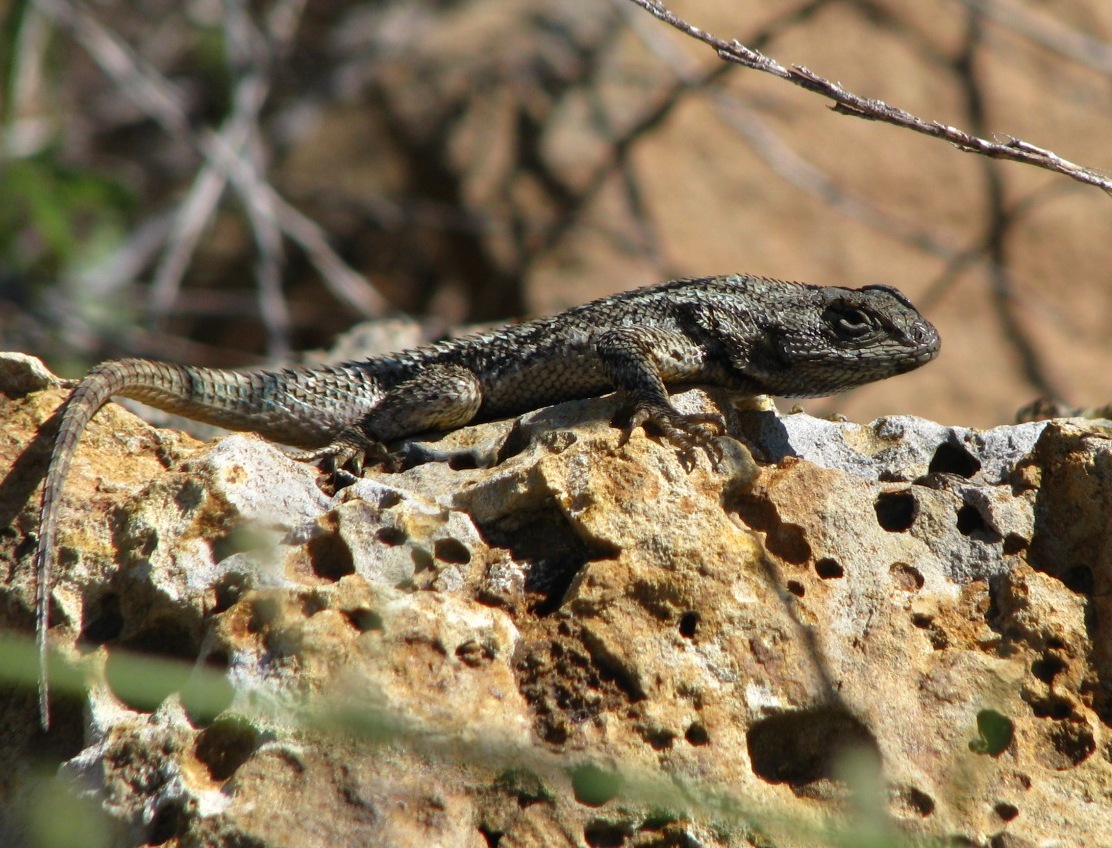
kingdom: Animalia
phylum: Chordata
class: Squamata
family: Phrynosomatidae
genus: Sceloporus
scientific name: Sceloporus occidentalis
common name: Western fence lizard
